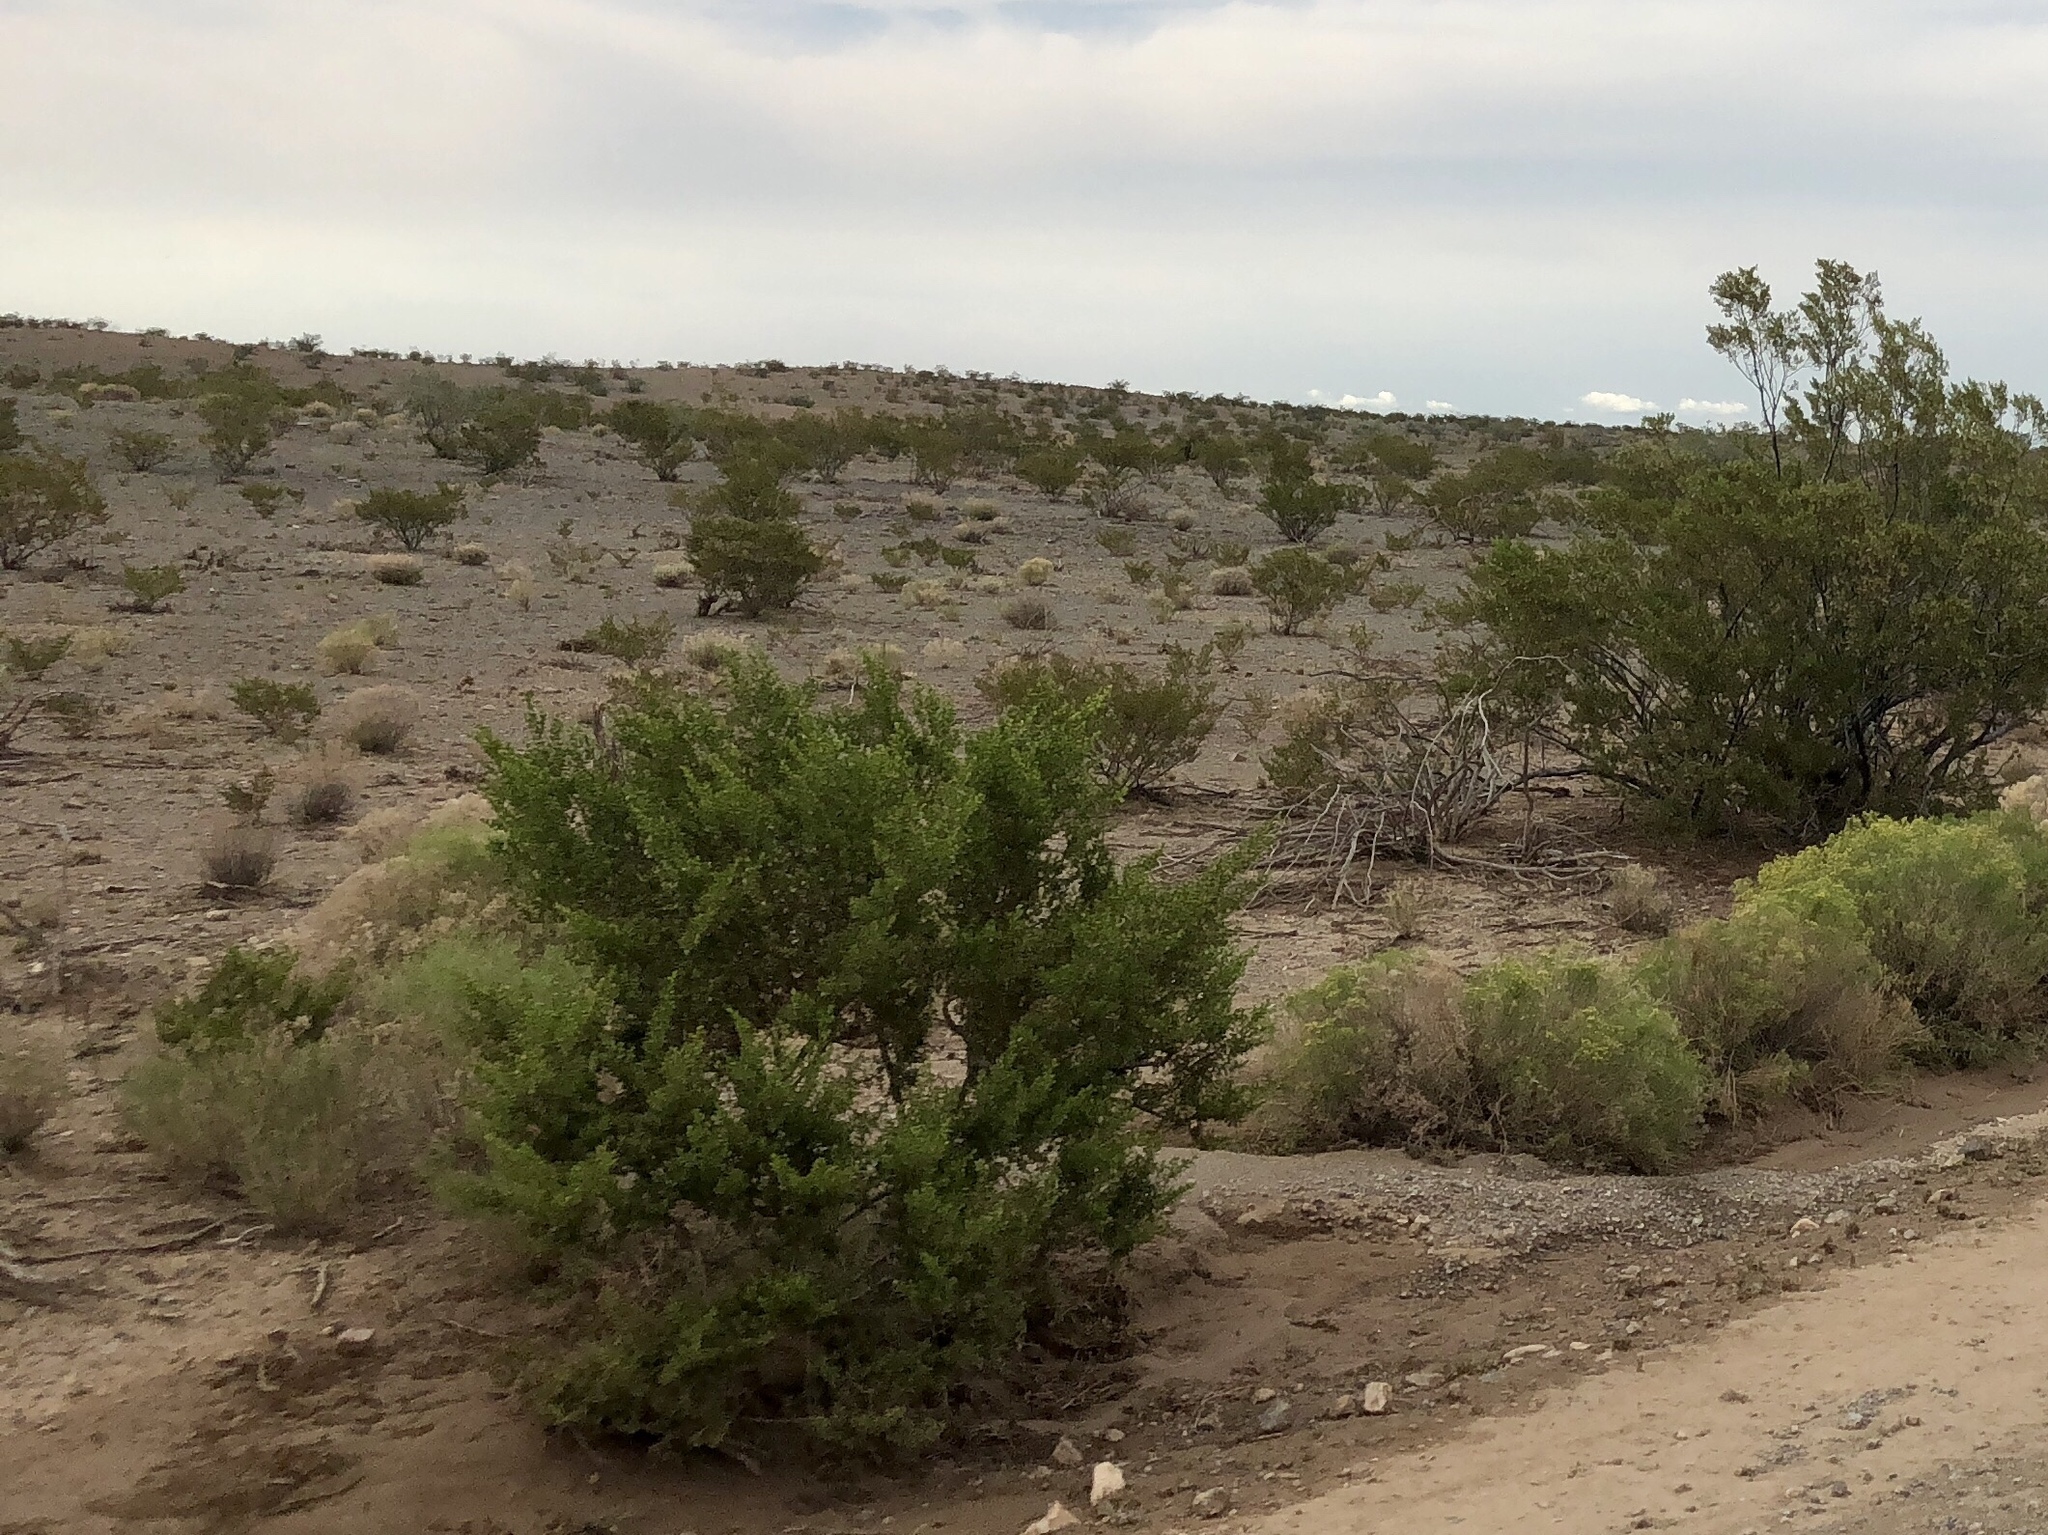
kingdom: Plantae
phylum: Tracheophyta
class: Magnoliopsida
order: Zygophyllales
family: Zygophyllaceae
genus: Larrea
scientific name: Larrea tridentata
